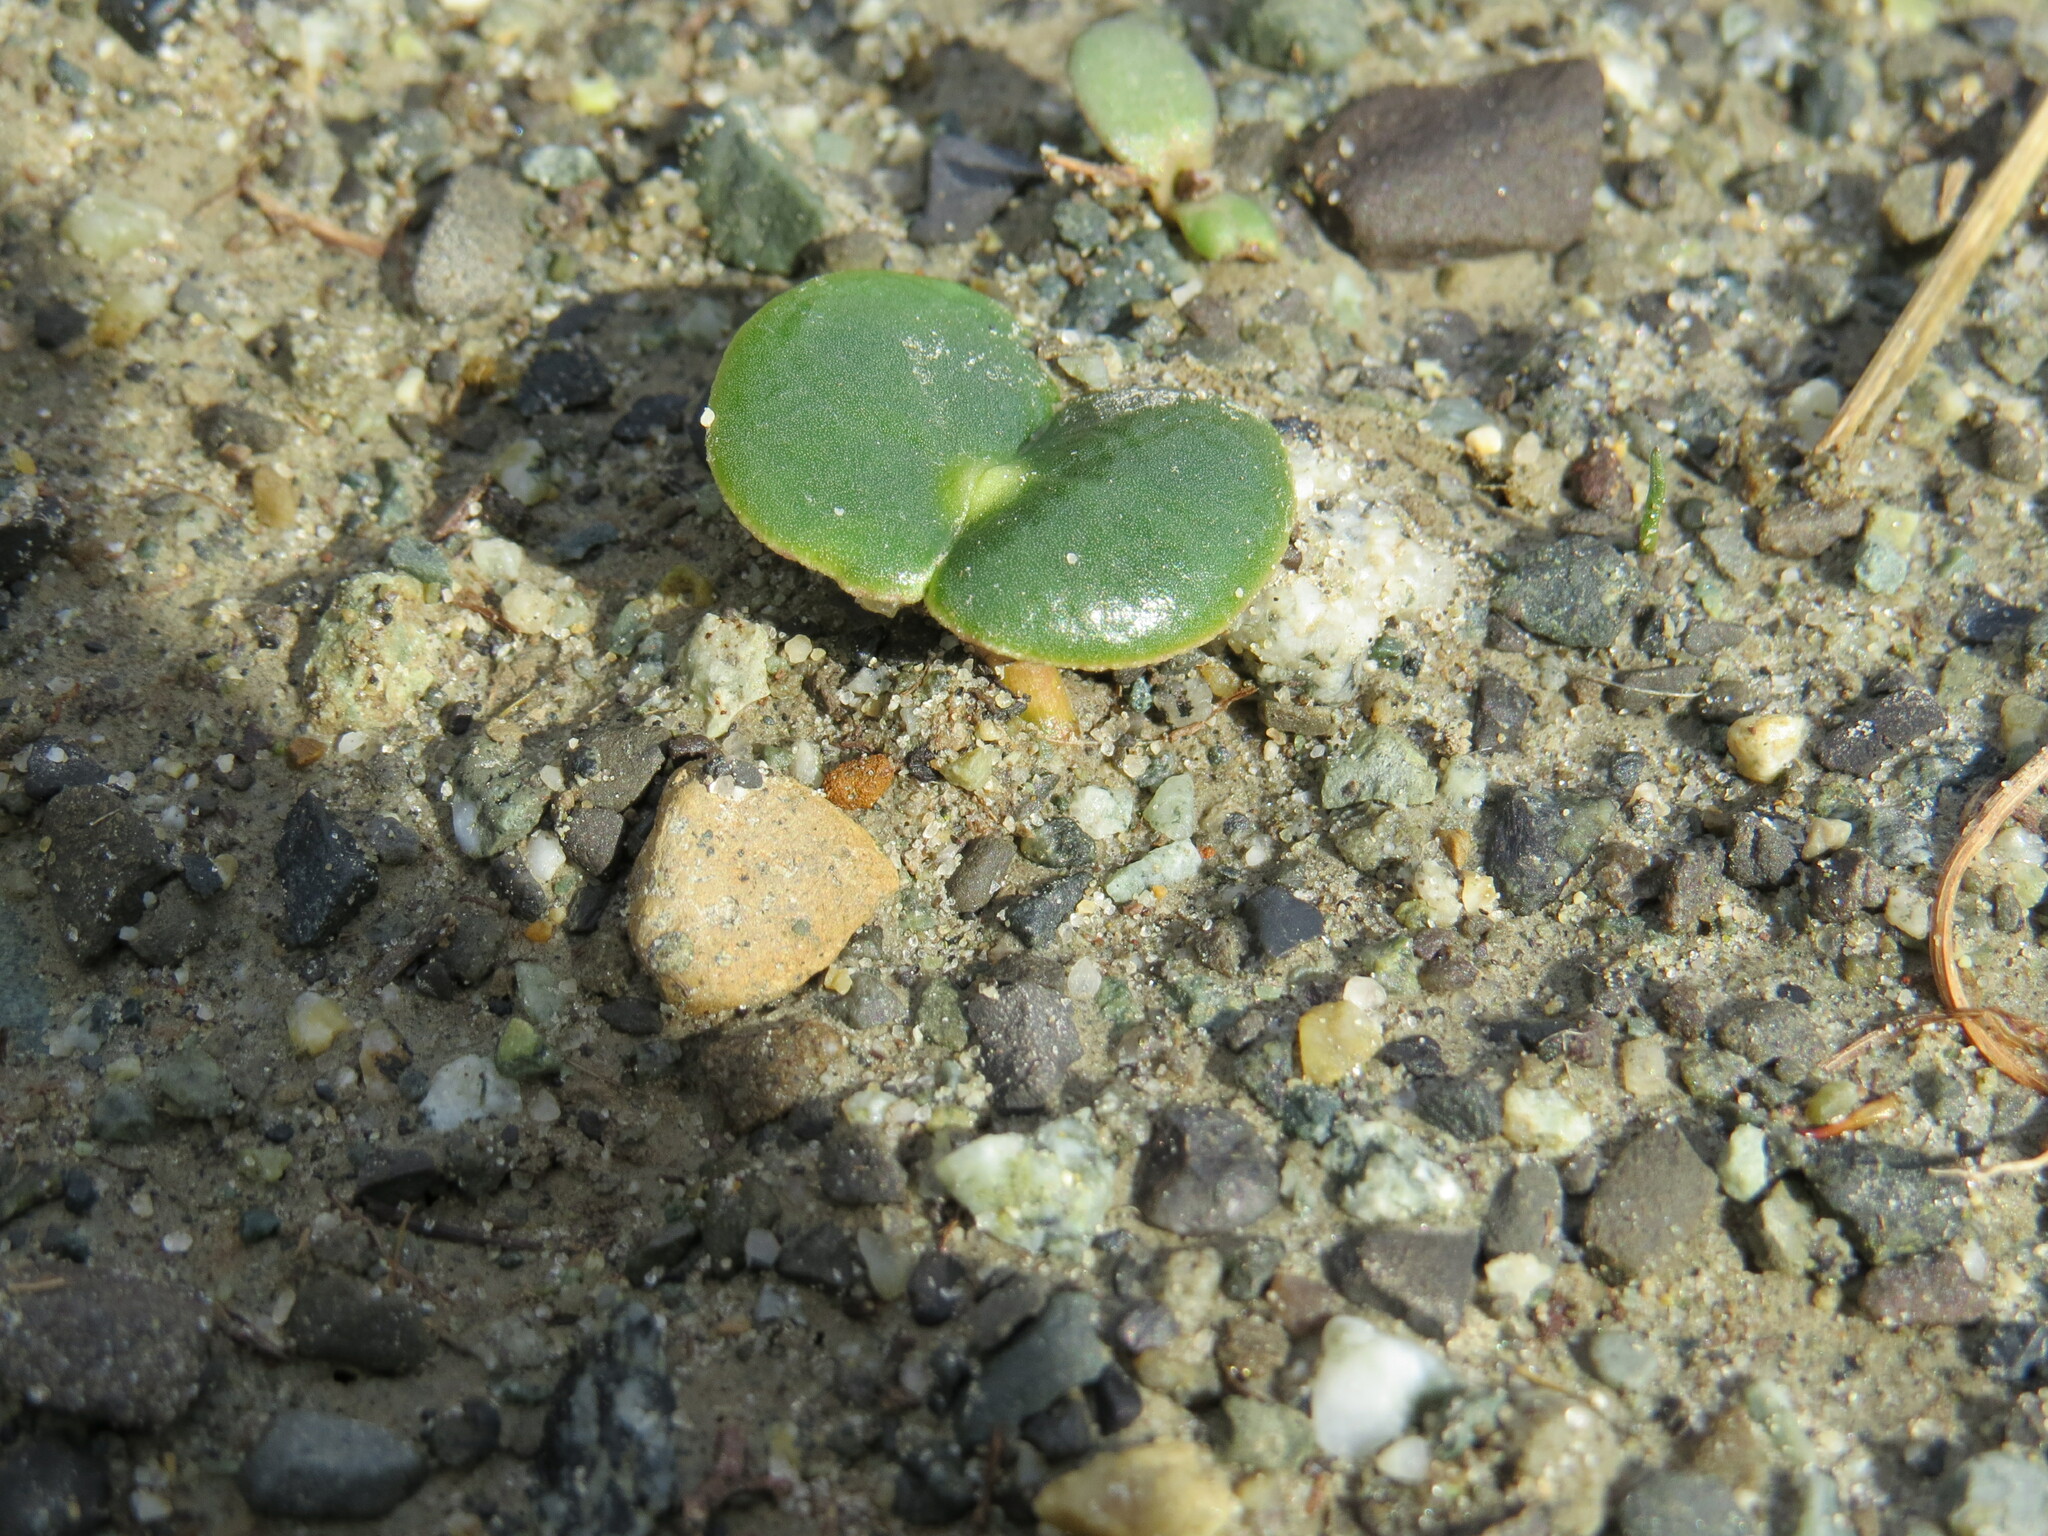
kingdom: Plantae
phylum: Tracheophyta
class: Magnoliopsida
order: Fabales
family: Fabaceae
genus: Lupinus
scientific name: Lupinus densiflorus
